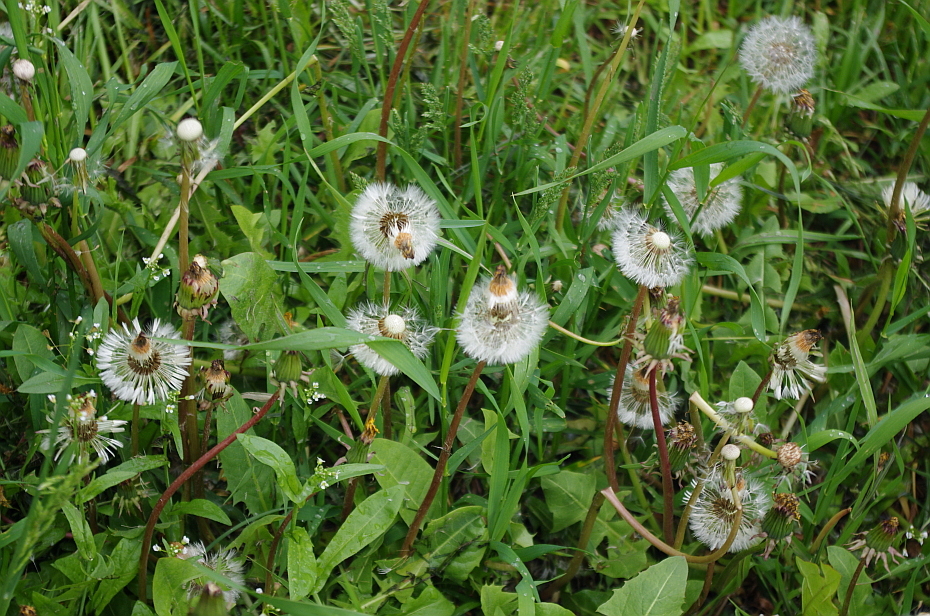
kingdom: Plantae
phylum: Tracheophyta
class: Magnoliopsida
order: Asterales
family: Asteraceae
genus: Taraxacum
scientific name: Taraxacum officinale
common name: Common dandelion
